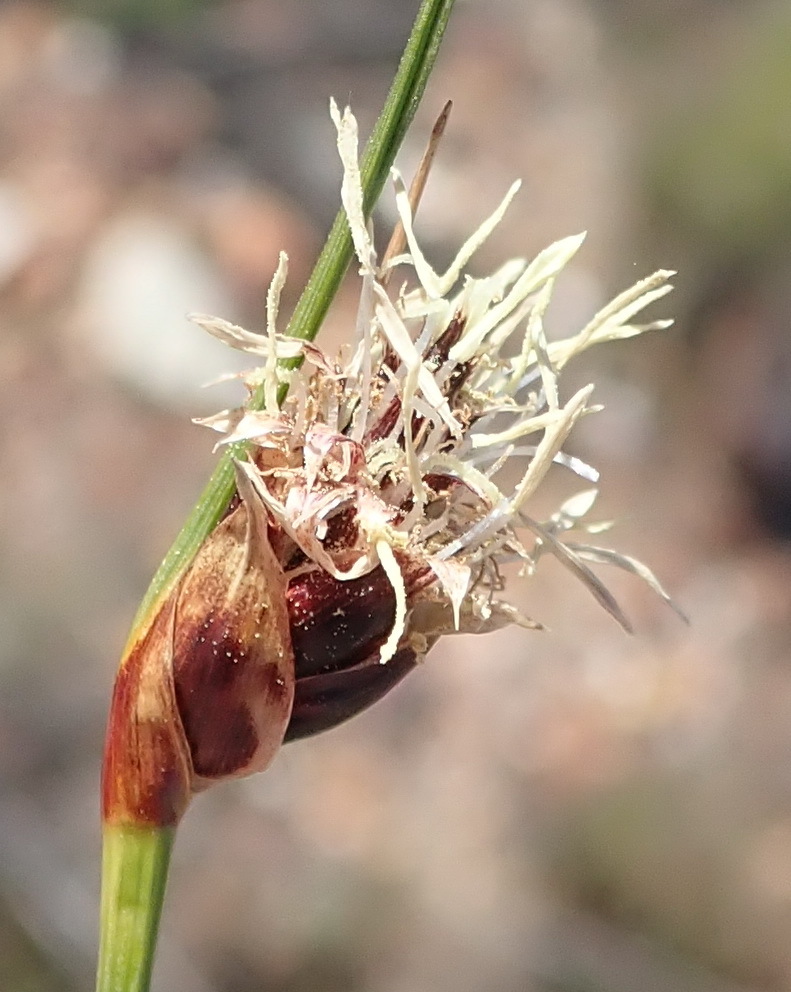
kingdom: Plantae
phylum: Tracheophyta
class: Liliopsida
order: Poales
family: Cyperaceae
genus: Ficinia
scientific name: Ficinia nigrescens
